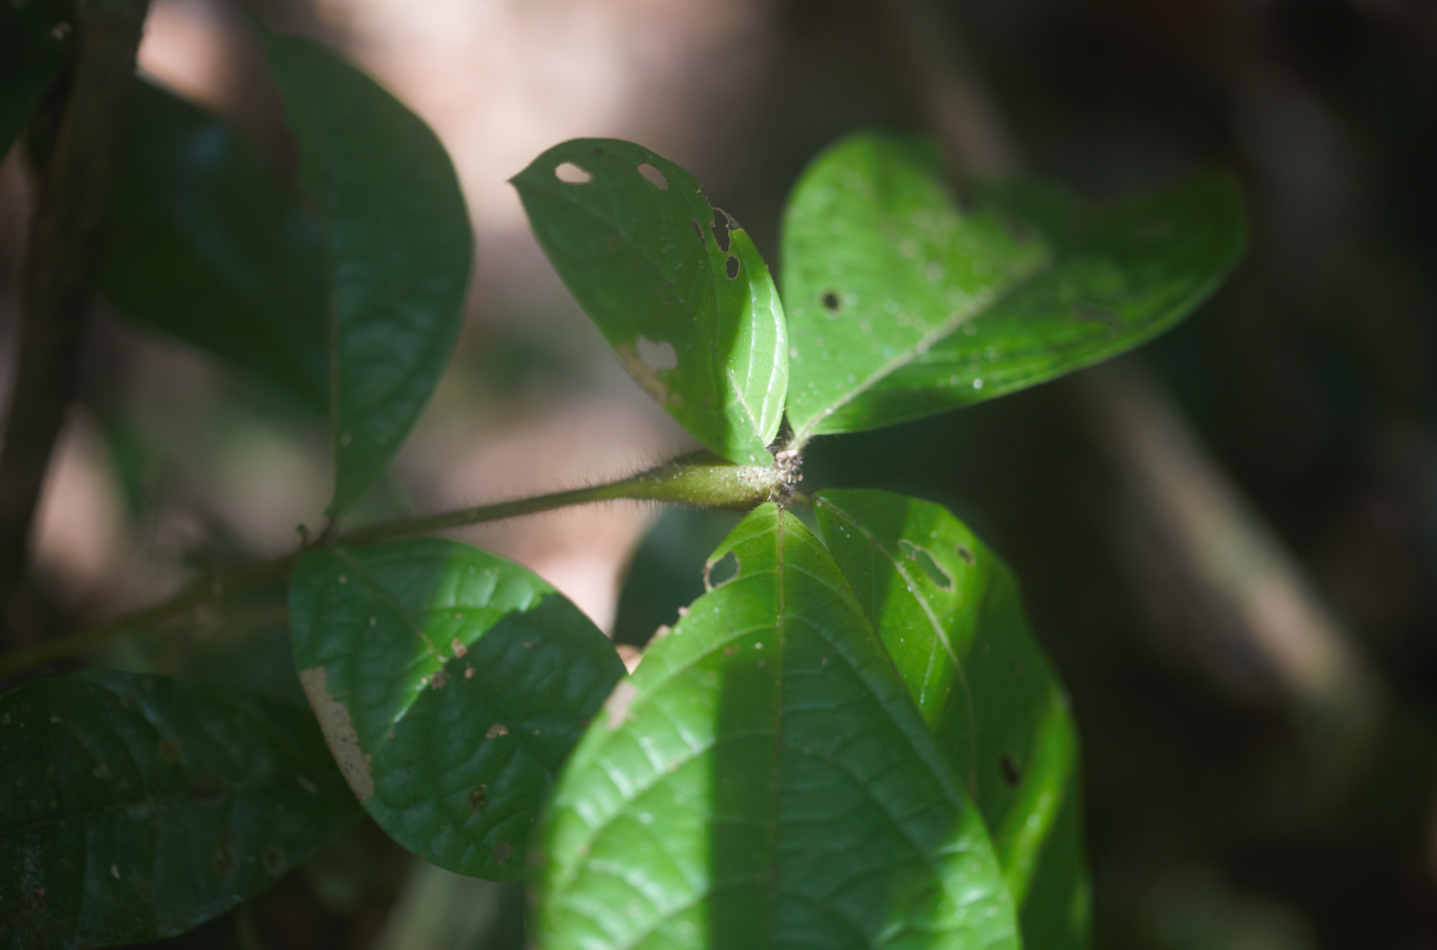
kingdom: Plantae
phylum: Tracheophyta
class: Magnoliopsida
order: Boraginales
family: Cordiaceae
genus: Cordia
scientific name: Cordia nodosa
